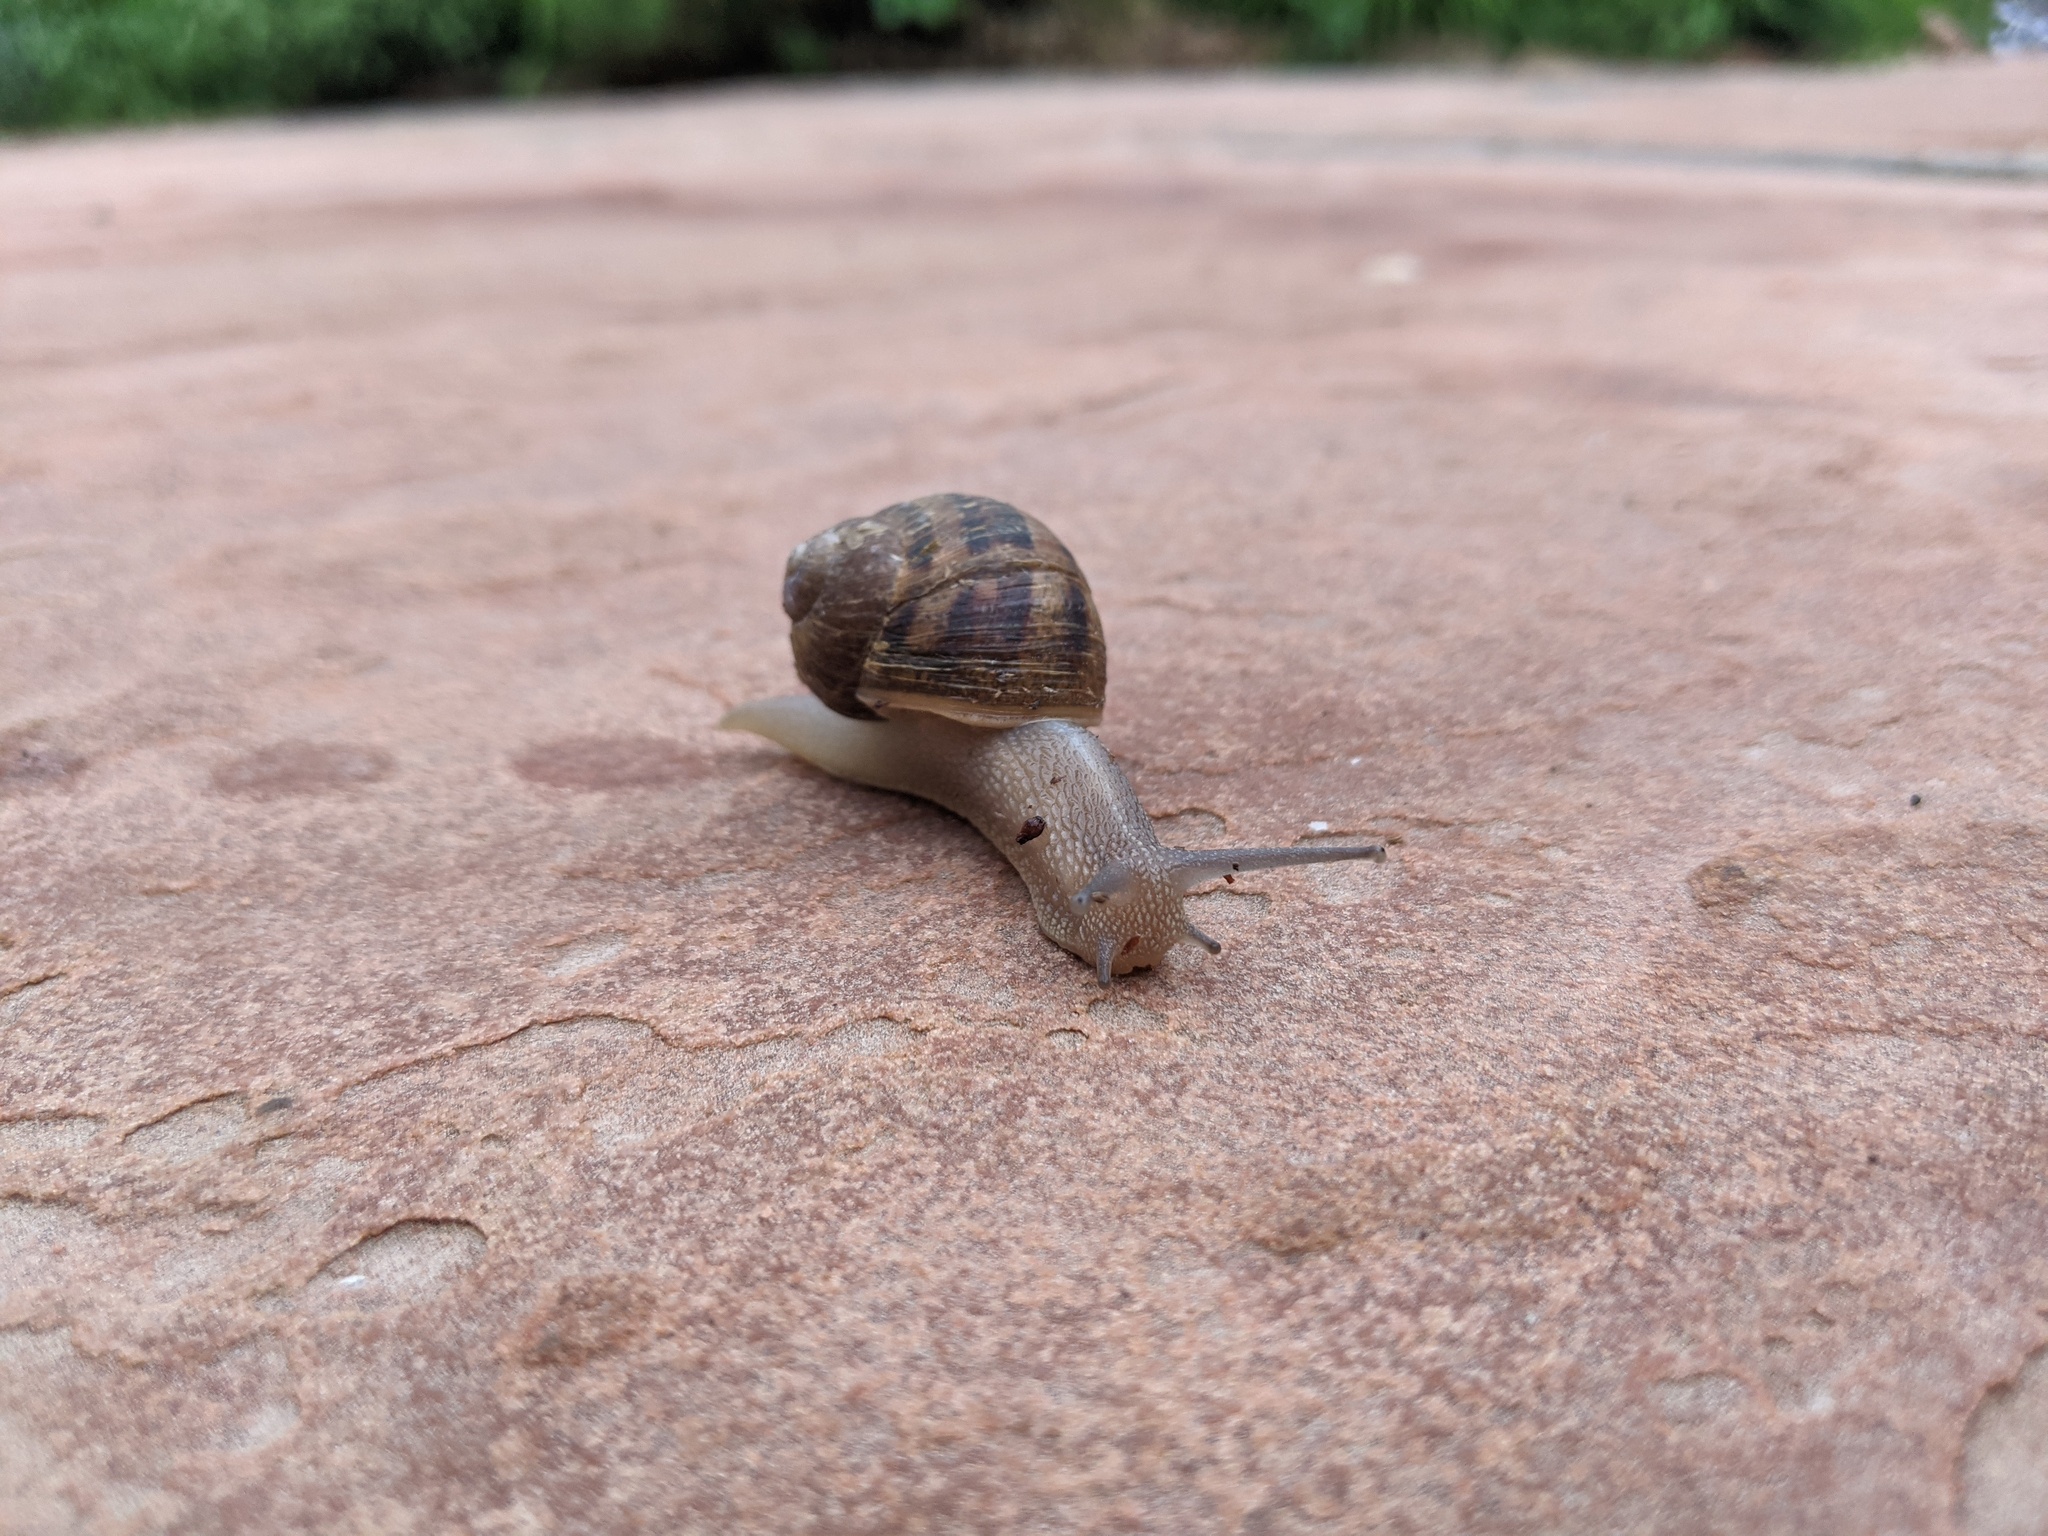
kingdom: Animalia
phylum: Mollusca
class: Gastropoda
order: Stylommatophora
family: Helicidae
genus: Cornu
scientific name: Cornu aspersum
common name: Brown garden snail
